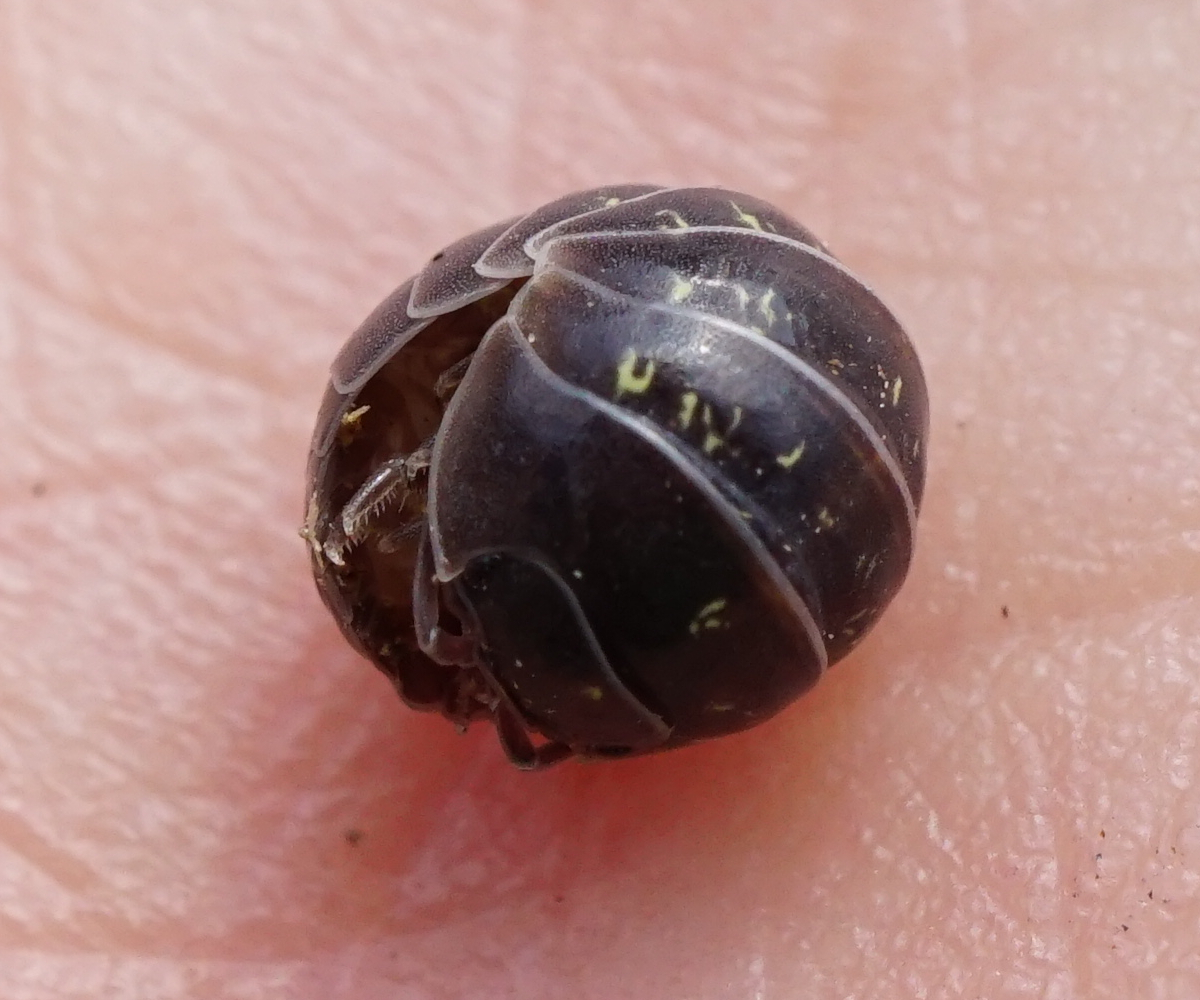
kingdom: Animalia
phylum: Arthropoda
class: Malacostraca
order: Isopoda
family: Armadillidiidae
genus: Armadillidium
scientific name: Armadillidium vulgare
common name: Common pill woodlouse
